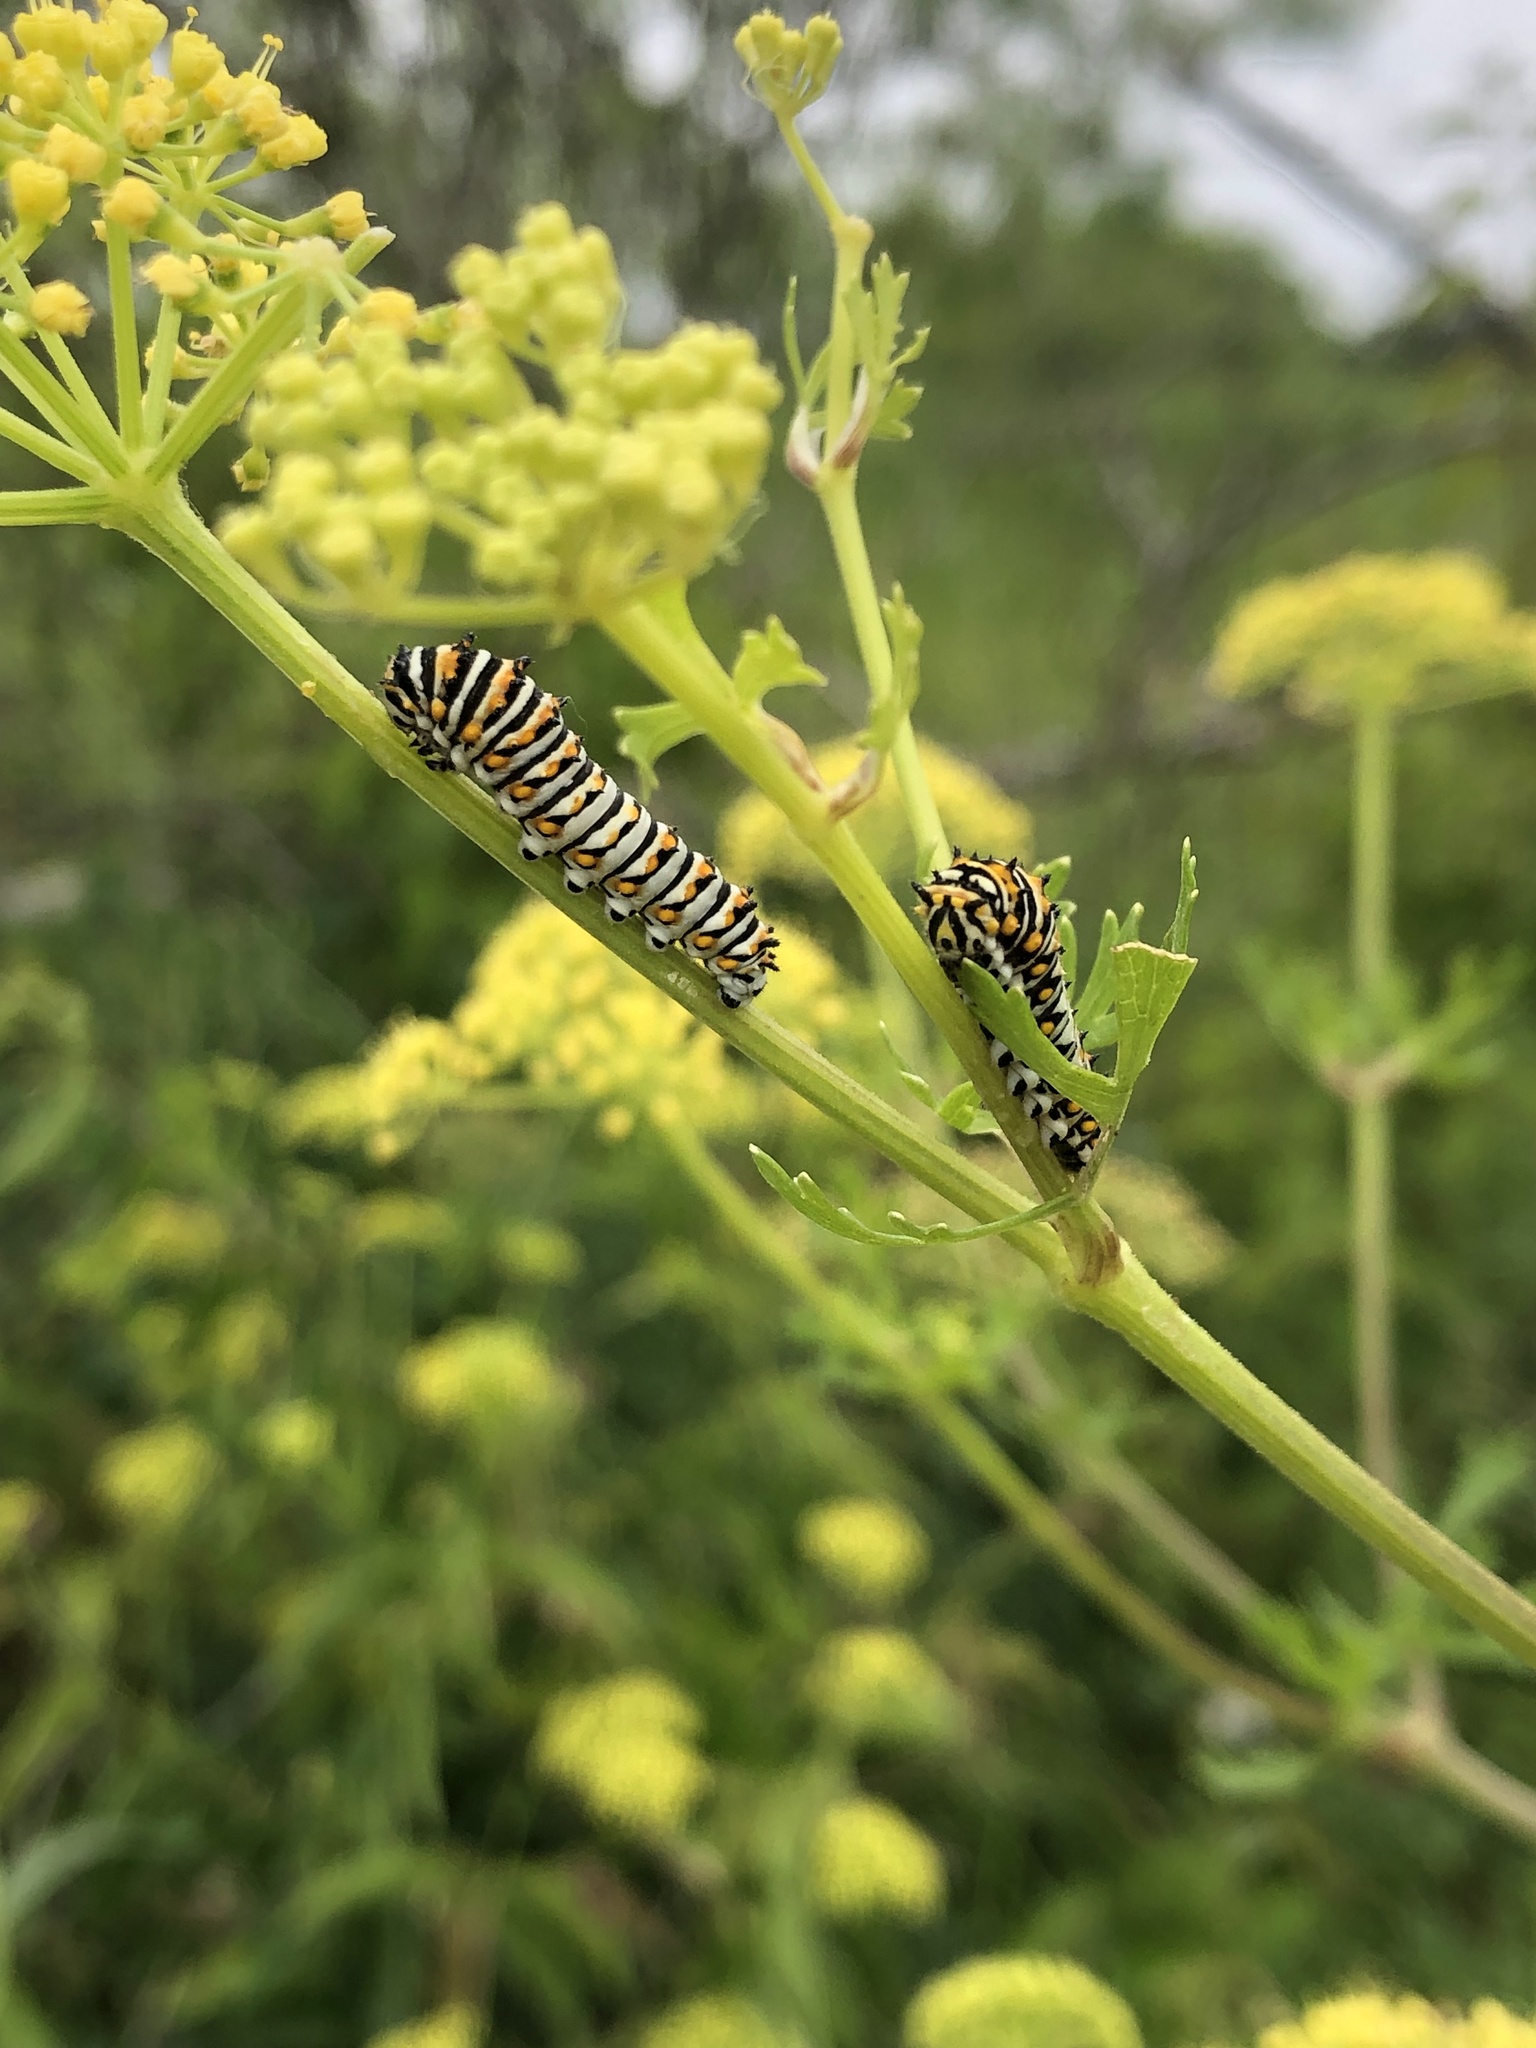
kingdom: Animalia
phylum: Arthropoda
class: Insecta
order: Lepidoptera
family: Papilionidae
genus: Papilio
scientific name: Papilio polyxenes
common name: Black swallowtail
